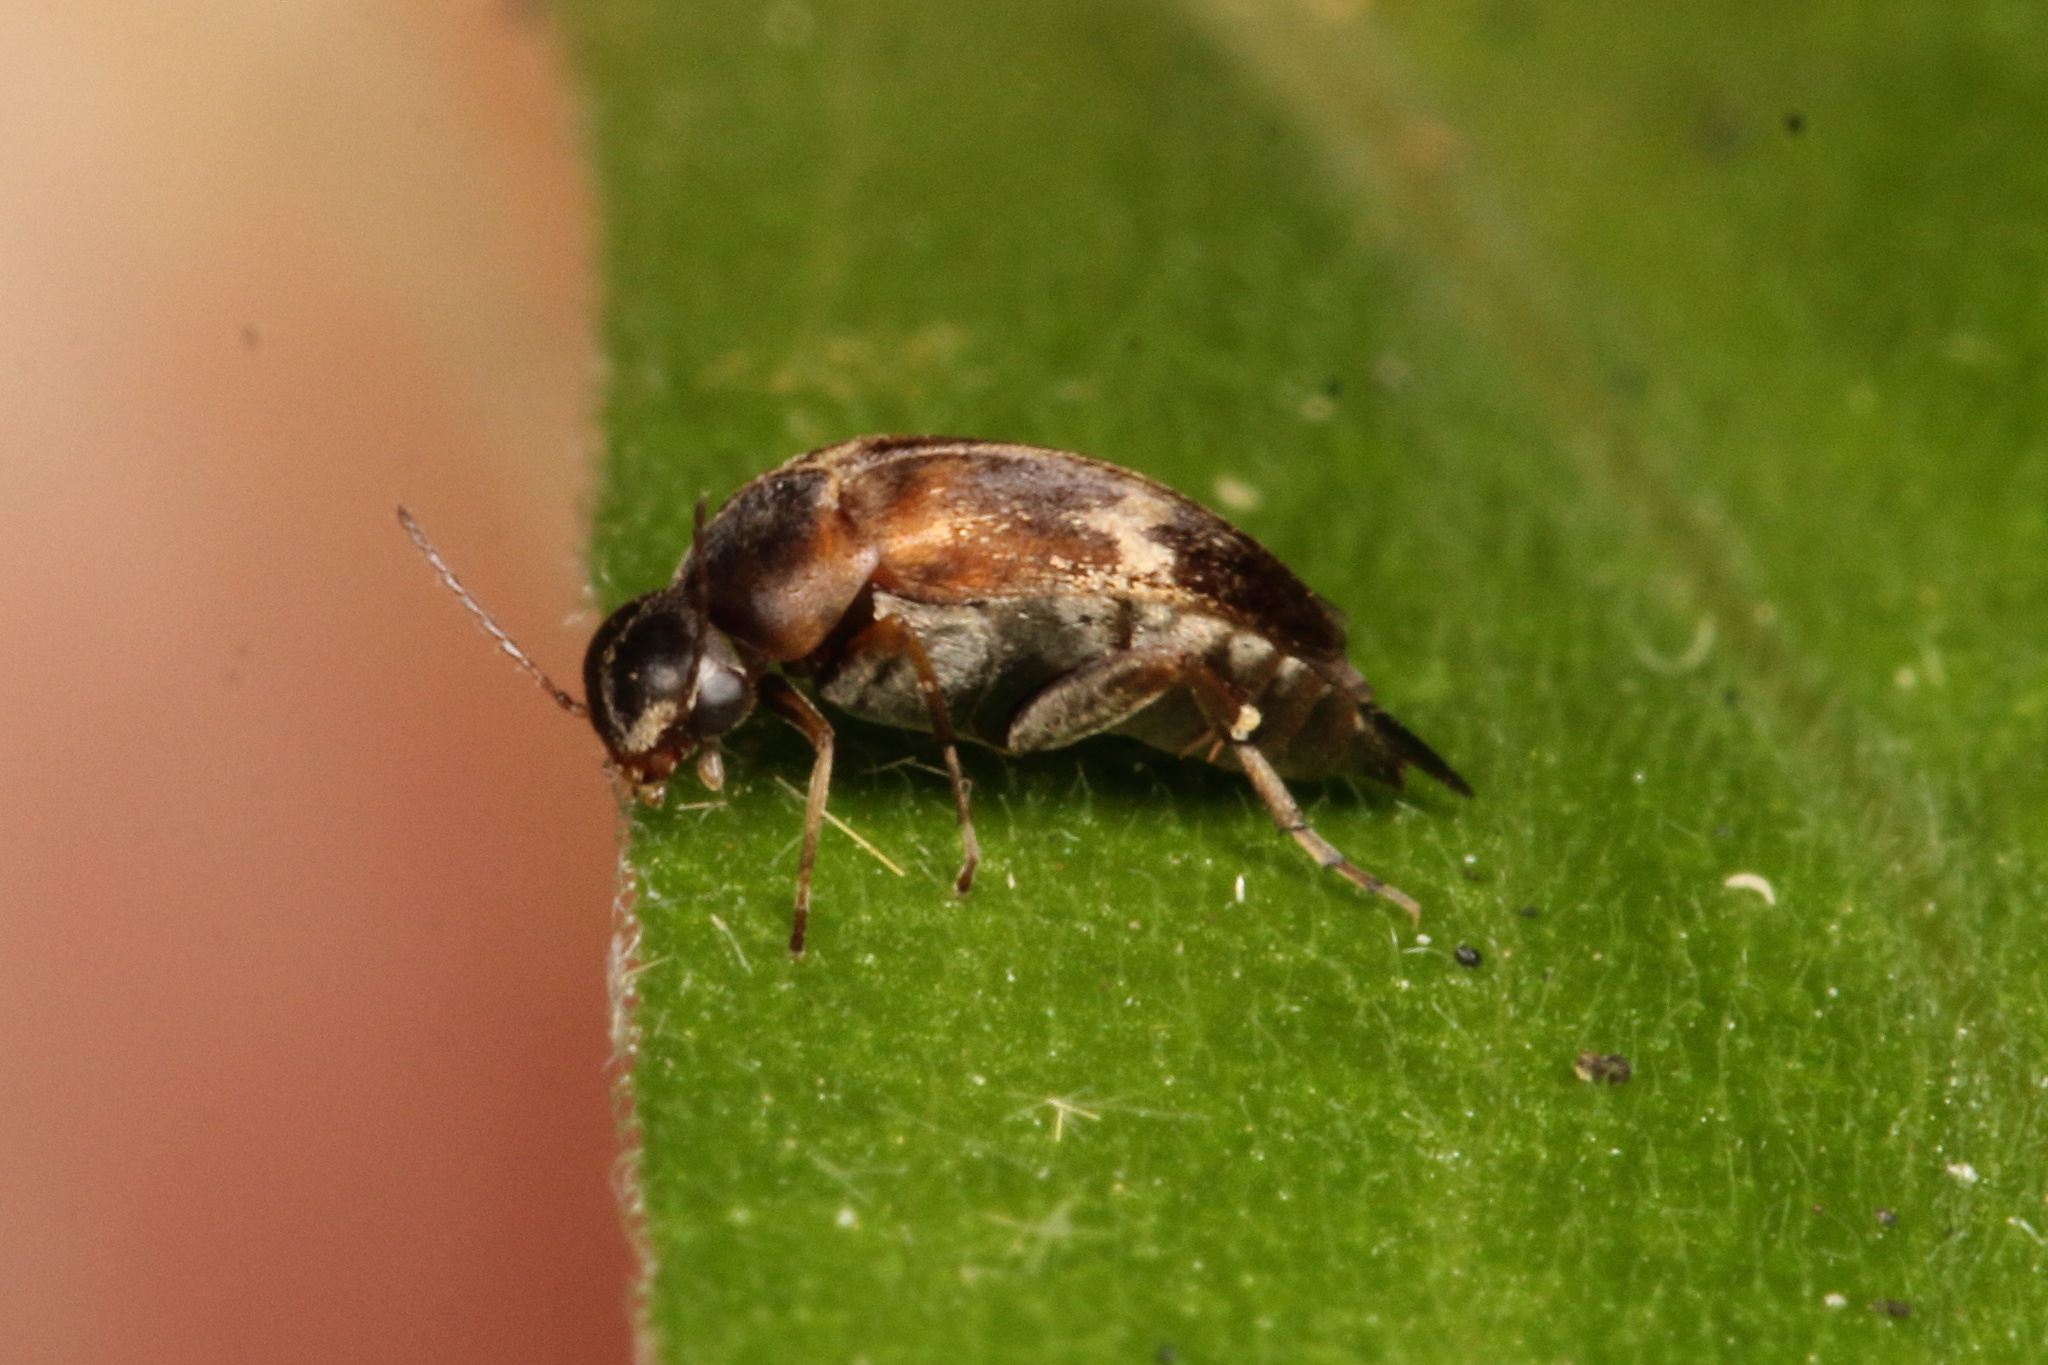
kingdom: Animalia
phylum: Arthropoda
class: Insecta
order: Coleoptera
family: Mordellidae
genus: Mordella
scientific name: Mordella
